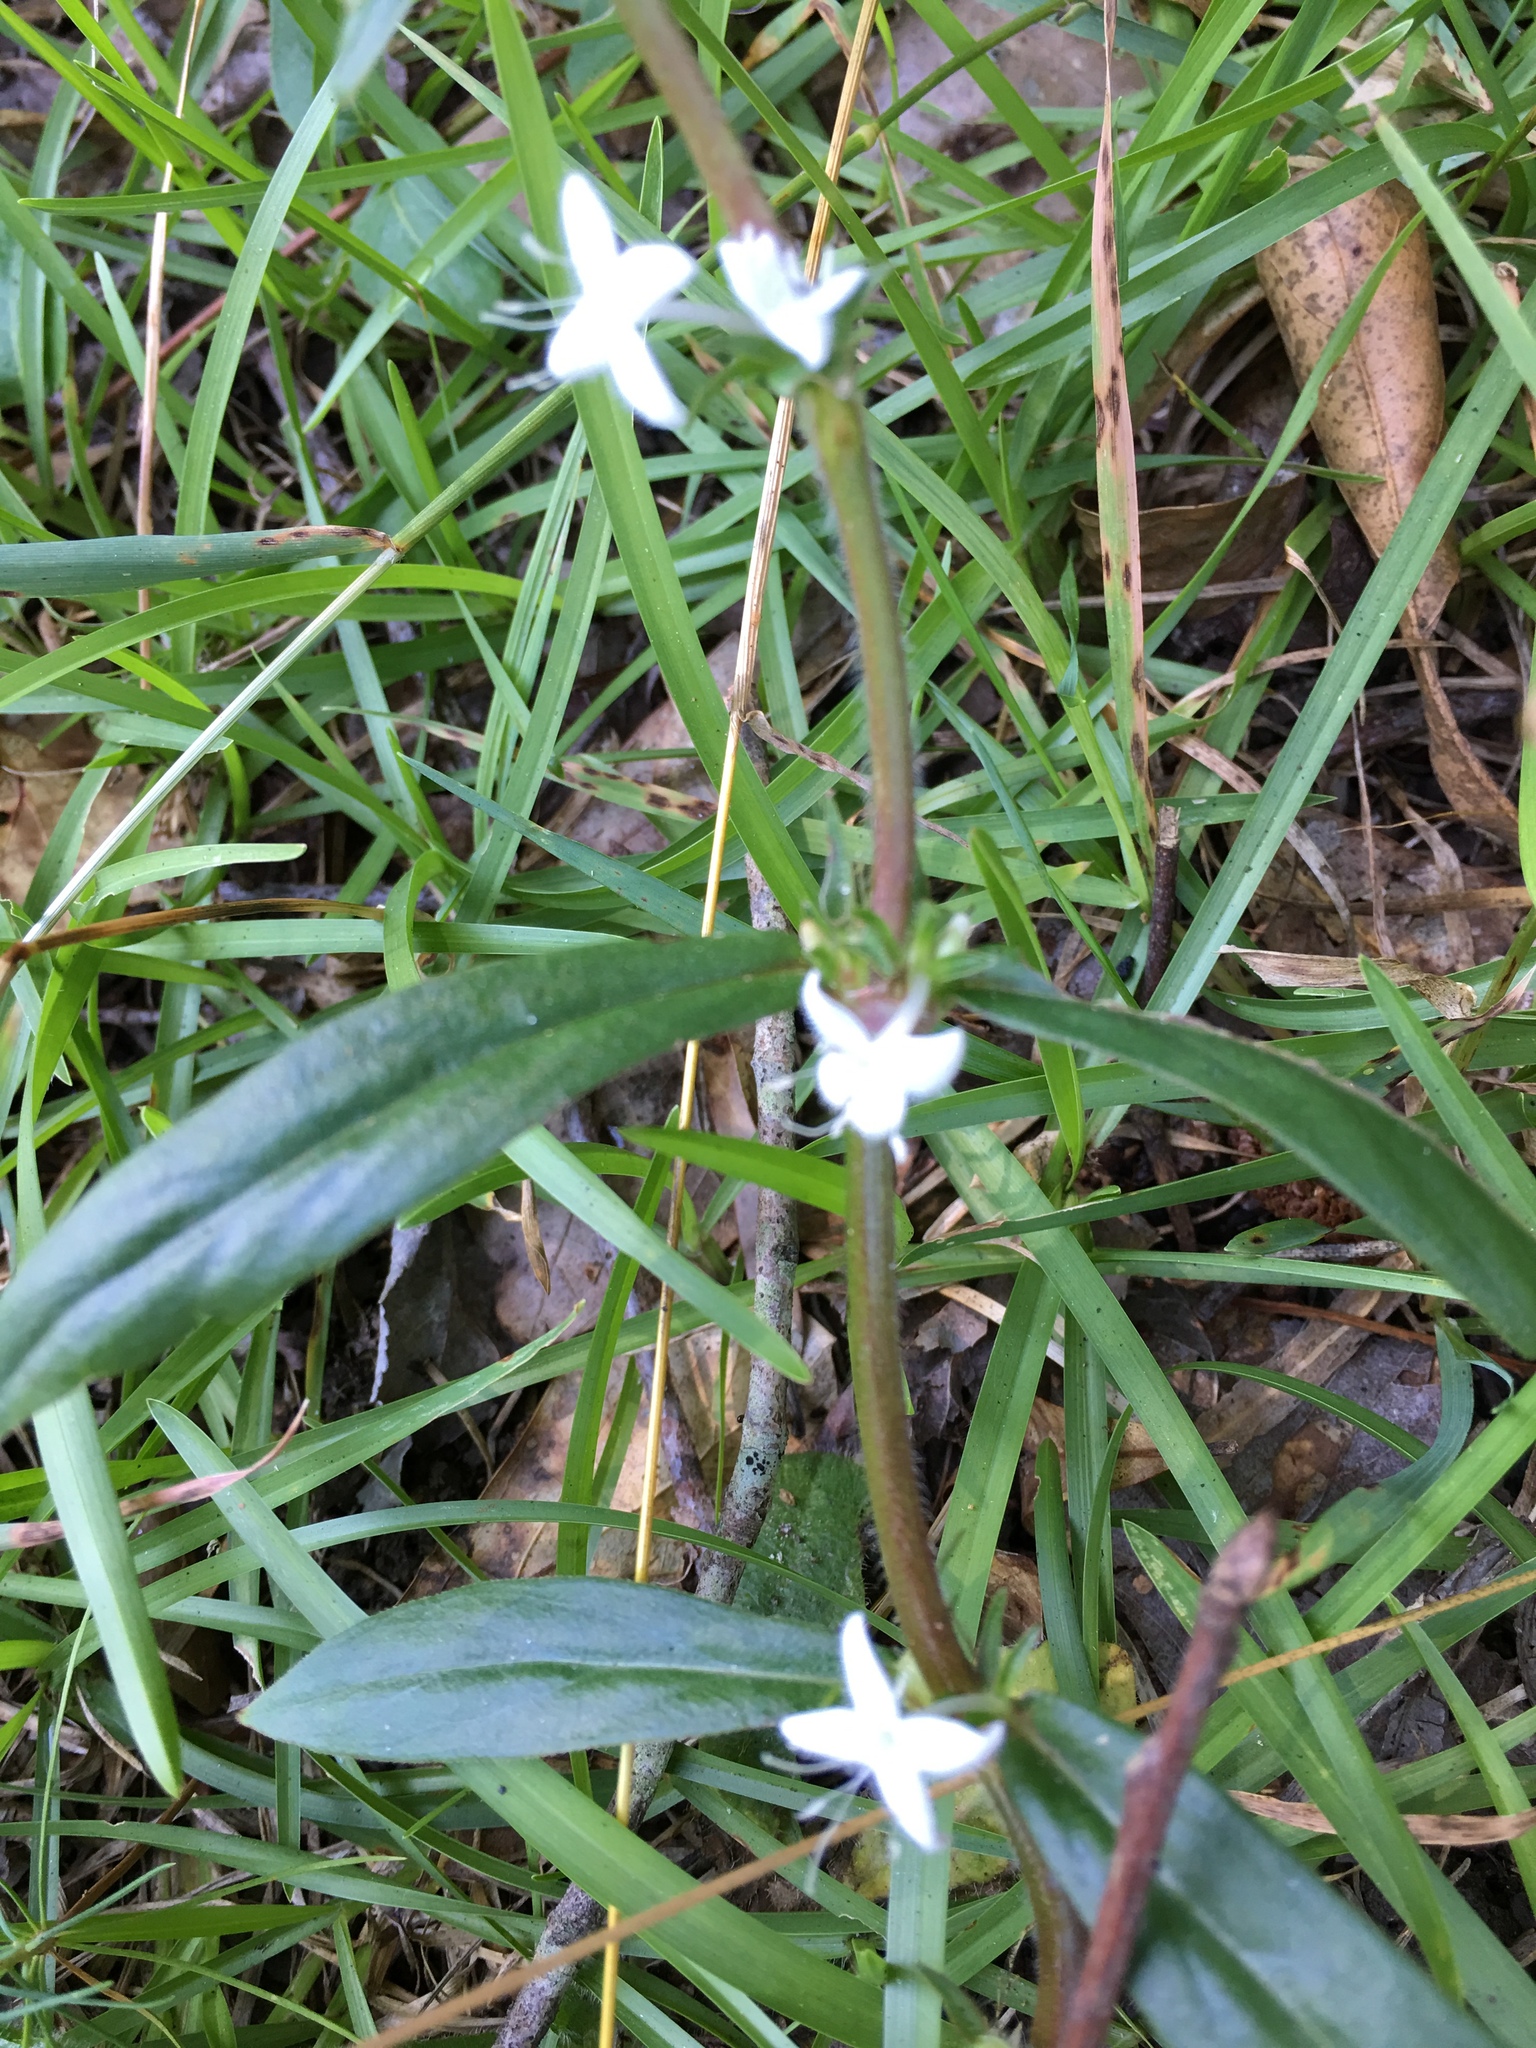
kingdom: Plantae
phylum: Tracheophyta
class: Magnoliopsida
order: Gentianales
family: Rubiaceae
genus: Diodia
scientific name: Diodia virginiana
